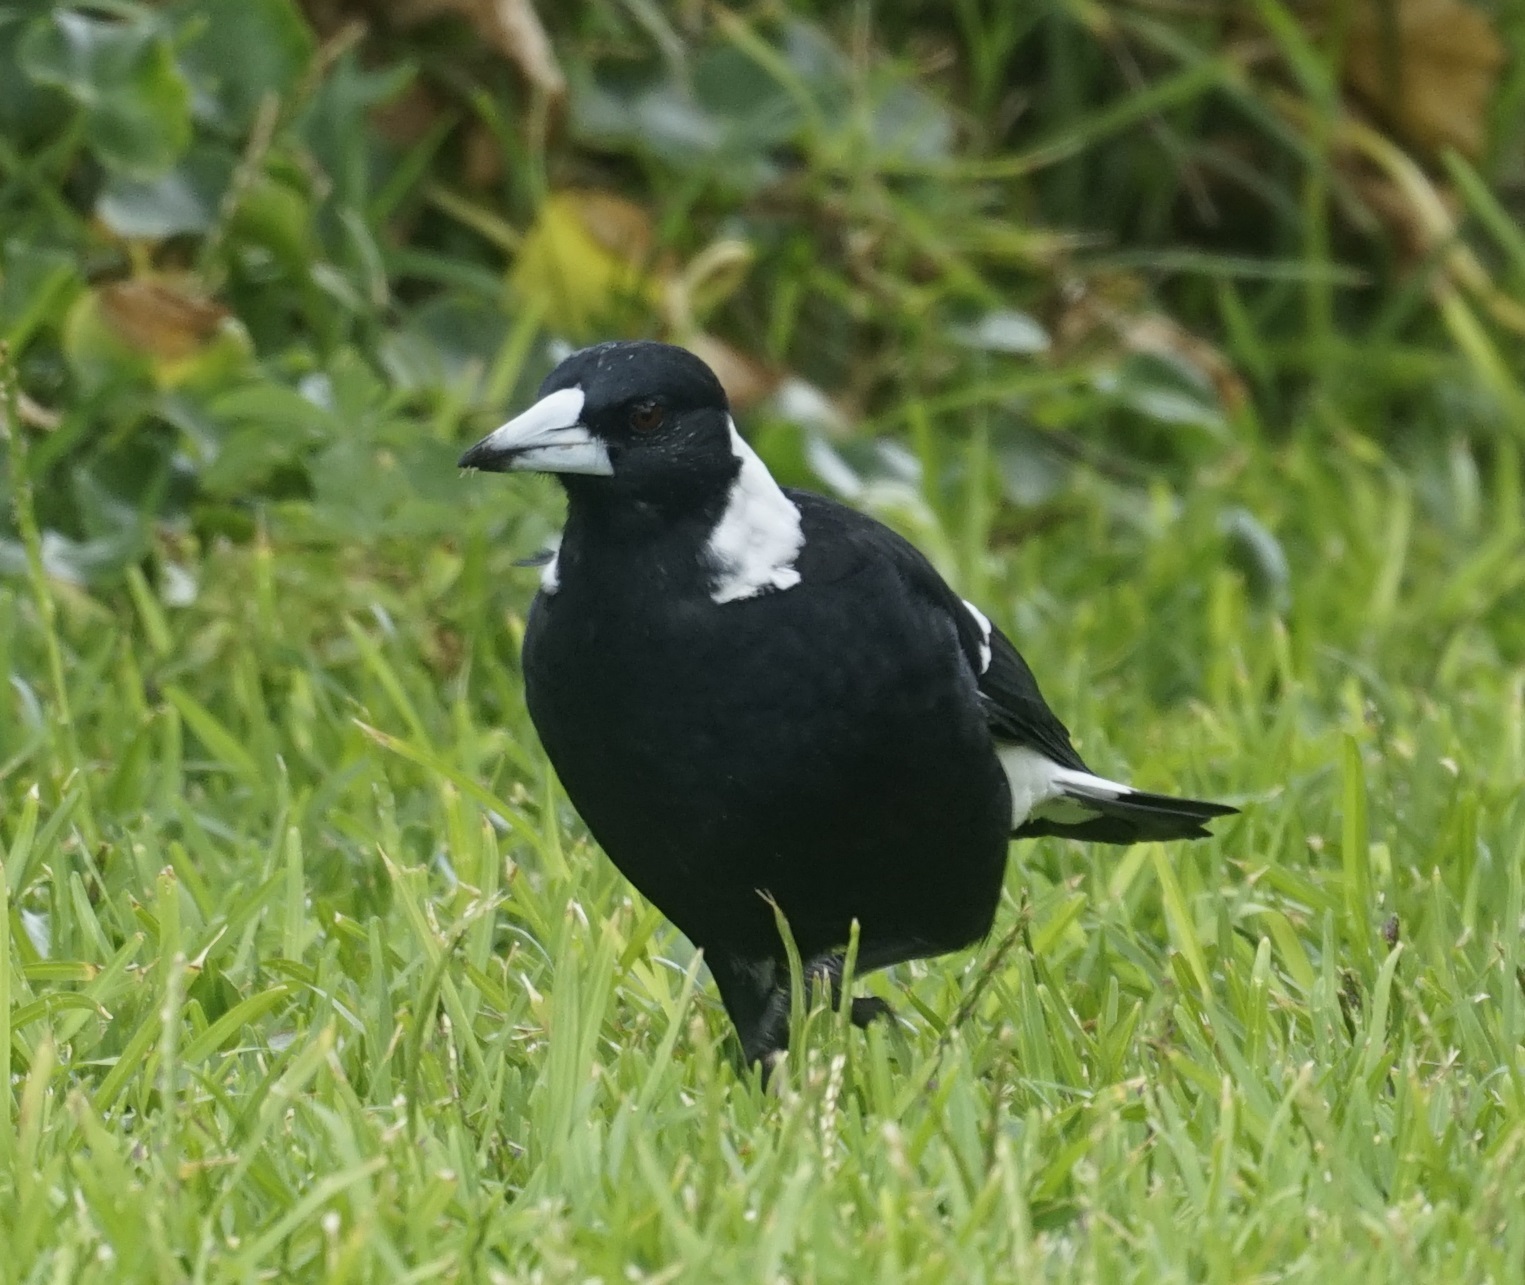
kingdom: Animalia
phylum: Chordata
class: Aves
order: Passeriformes
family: Cracticidae
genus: Gymnorhina
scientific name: Gymnorhina tibicen
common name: Australian magpie
